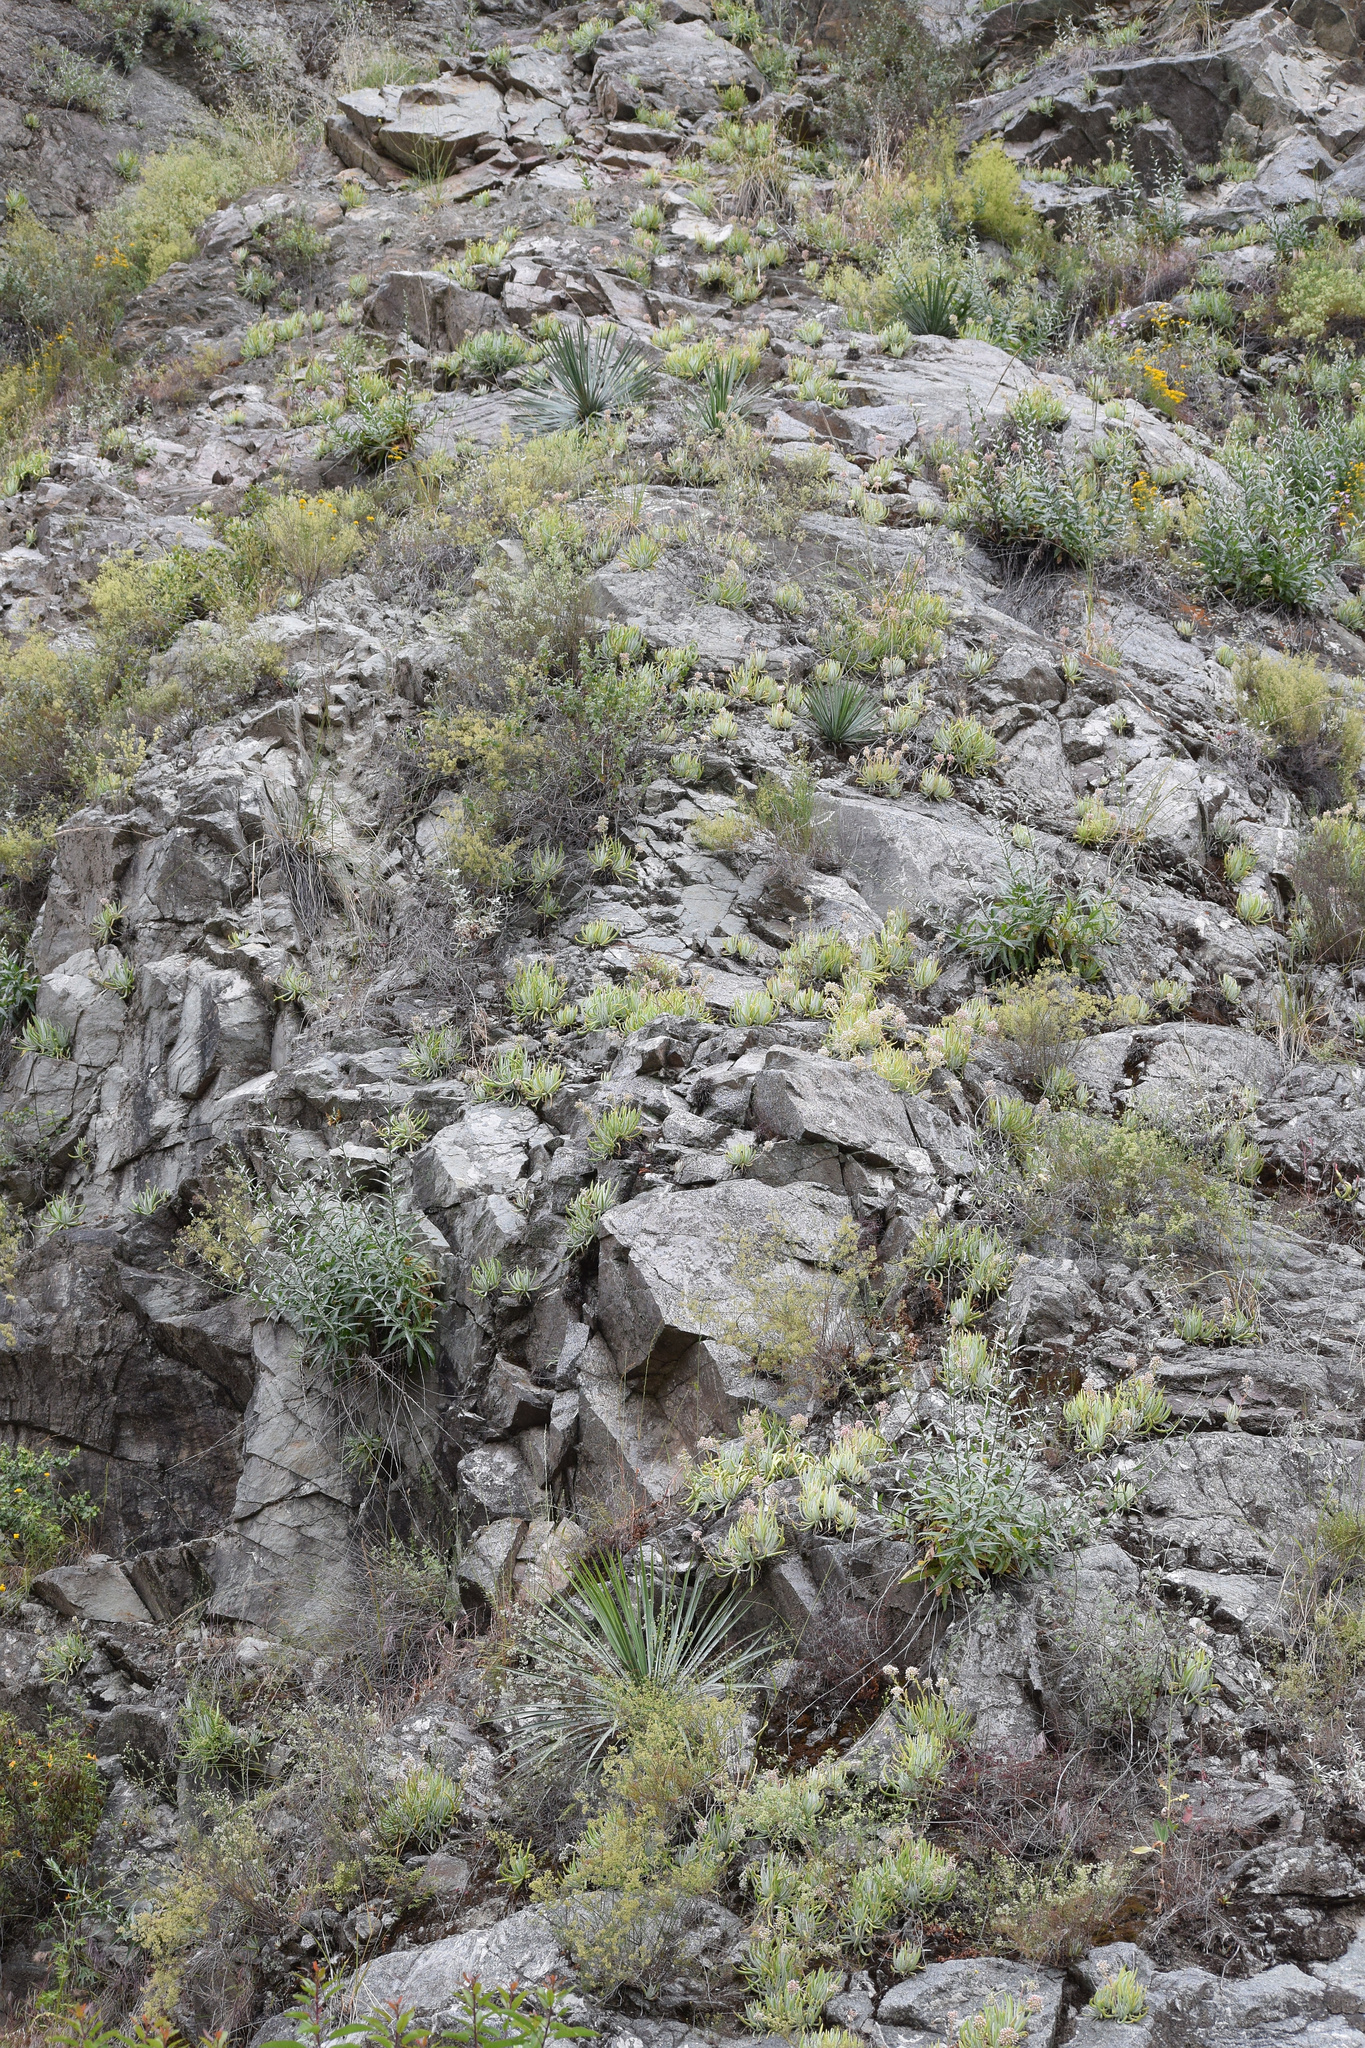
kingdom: Plantae
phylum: Tracheophyta
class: Magnoliopsida
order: Saxifragales
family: Crassulaceae
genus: Dudleya
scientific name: Dudleya densiflora
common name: San gabriel mountains dudleya
